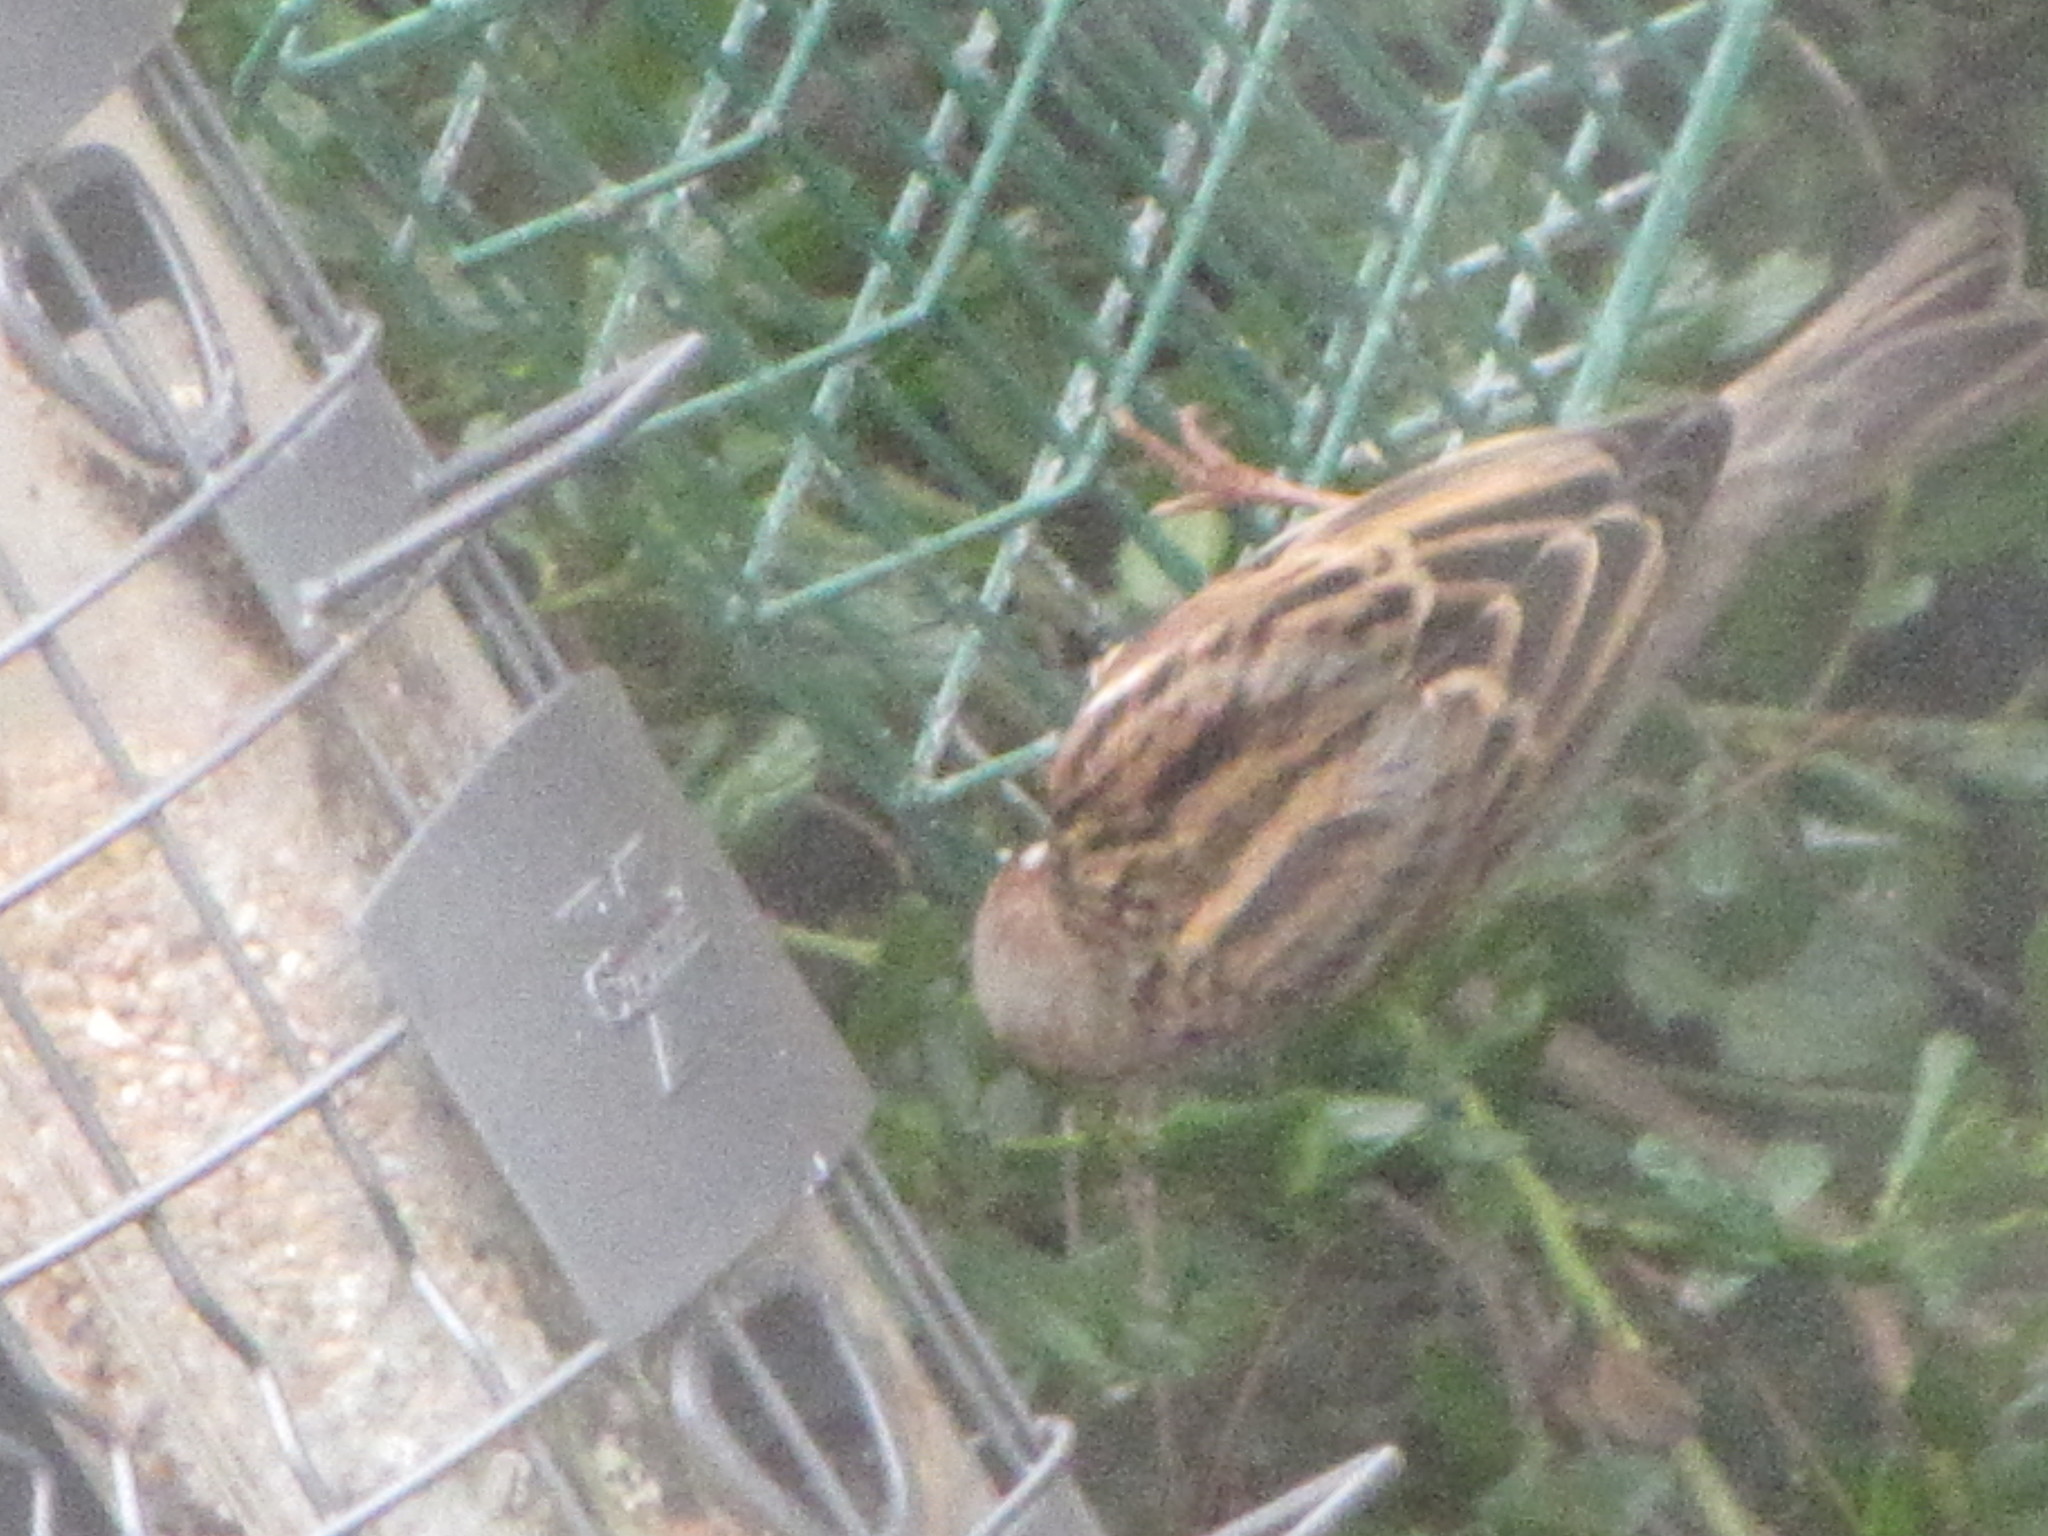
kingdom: Animalia
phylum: Chordata
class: Aves
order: Passeriformes
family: Passeridae
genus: Passer
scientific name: Passer domesticus
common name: House sparrow
